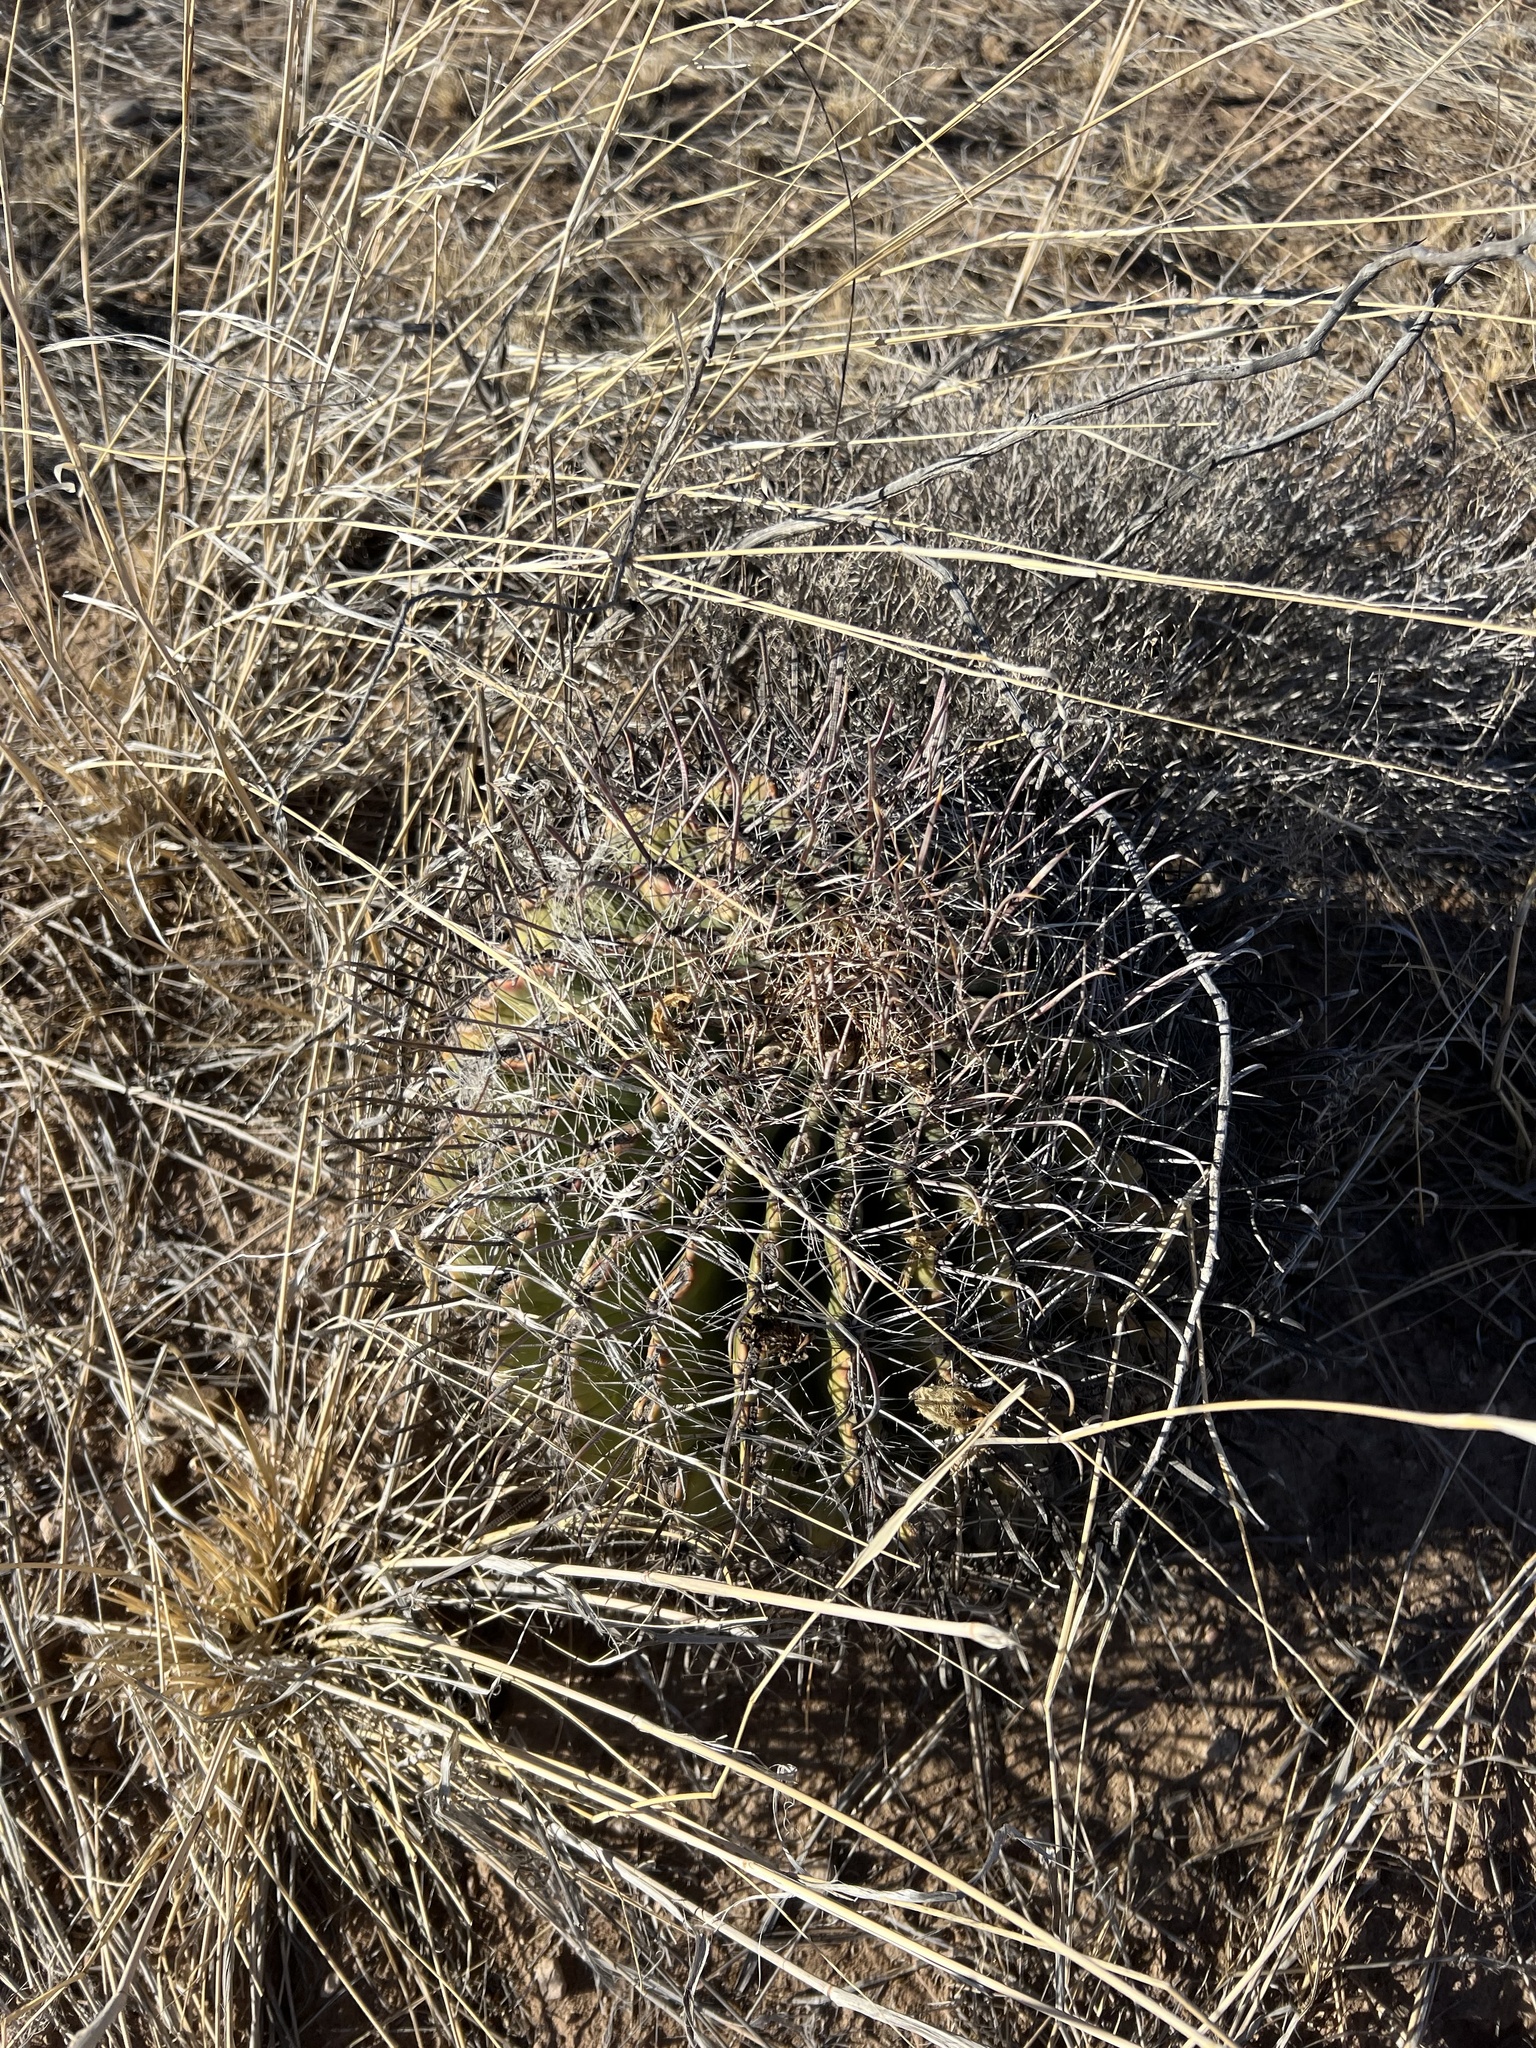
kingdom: Plantae
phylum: Tracheophyta
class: Magnoliopsida
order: Caryophyllales
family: Cactaceae
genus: Ferocactus
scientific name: Ferocactus wislizeni
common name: Candy barrel cactus
